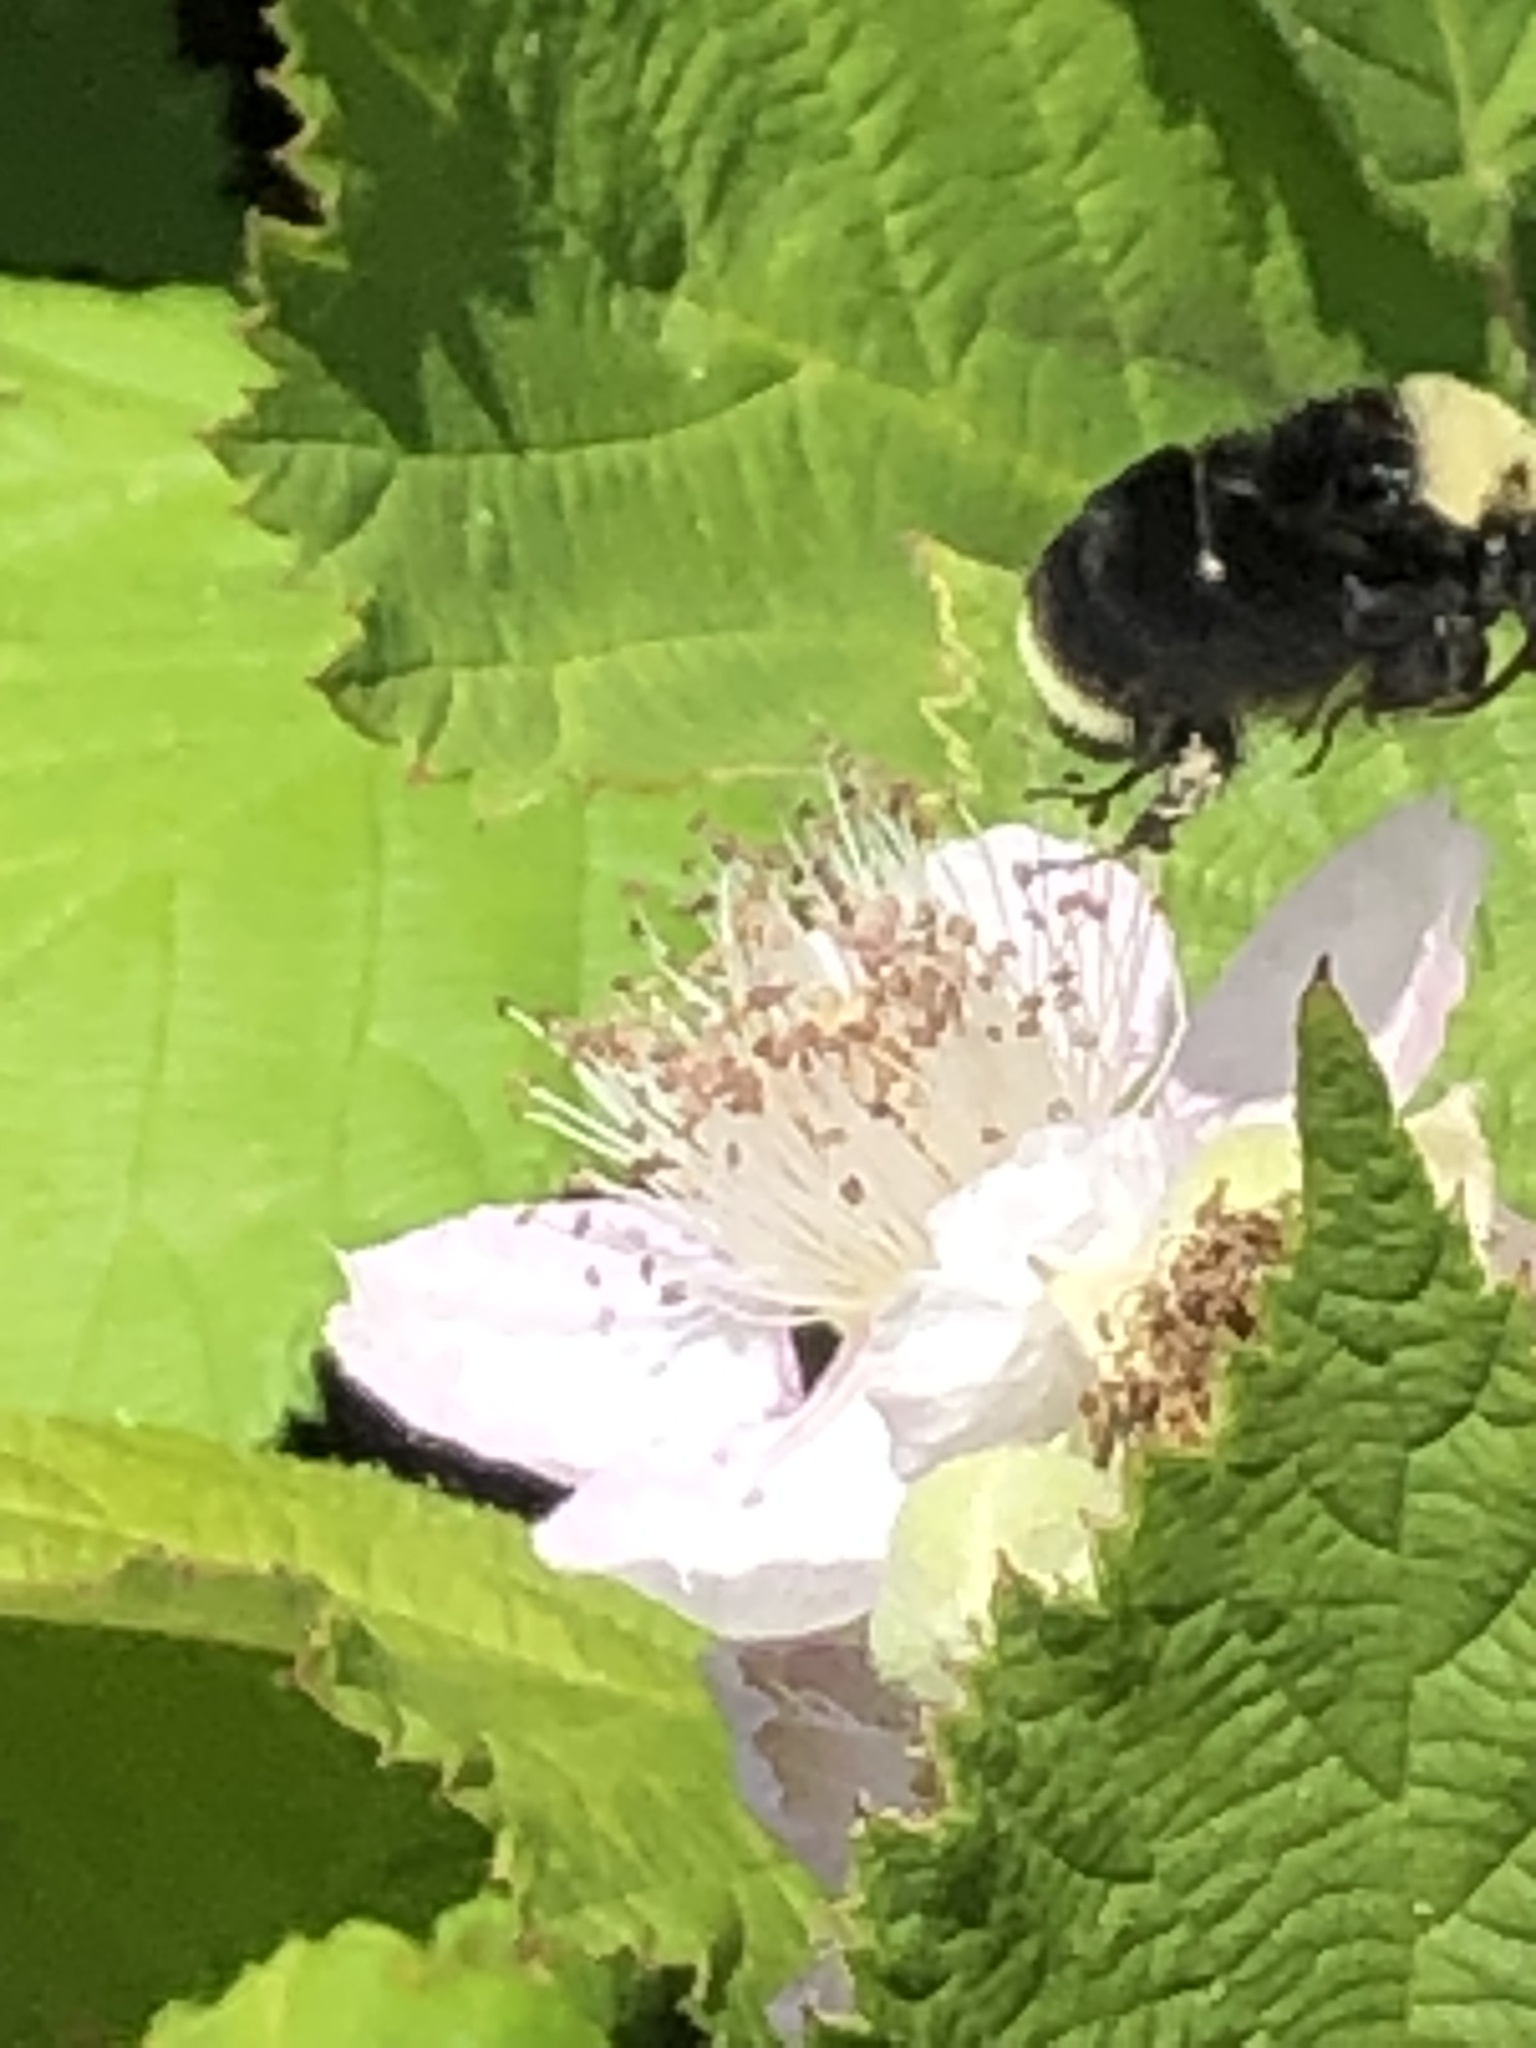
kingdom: Animalia
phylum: Arthropoda
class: Insecta
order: Hymenoptera
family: Apidae
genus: Bombus
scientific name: Bombus vosnesenskii
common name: Vosnesensky bumble bee
